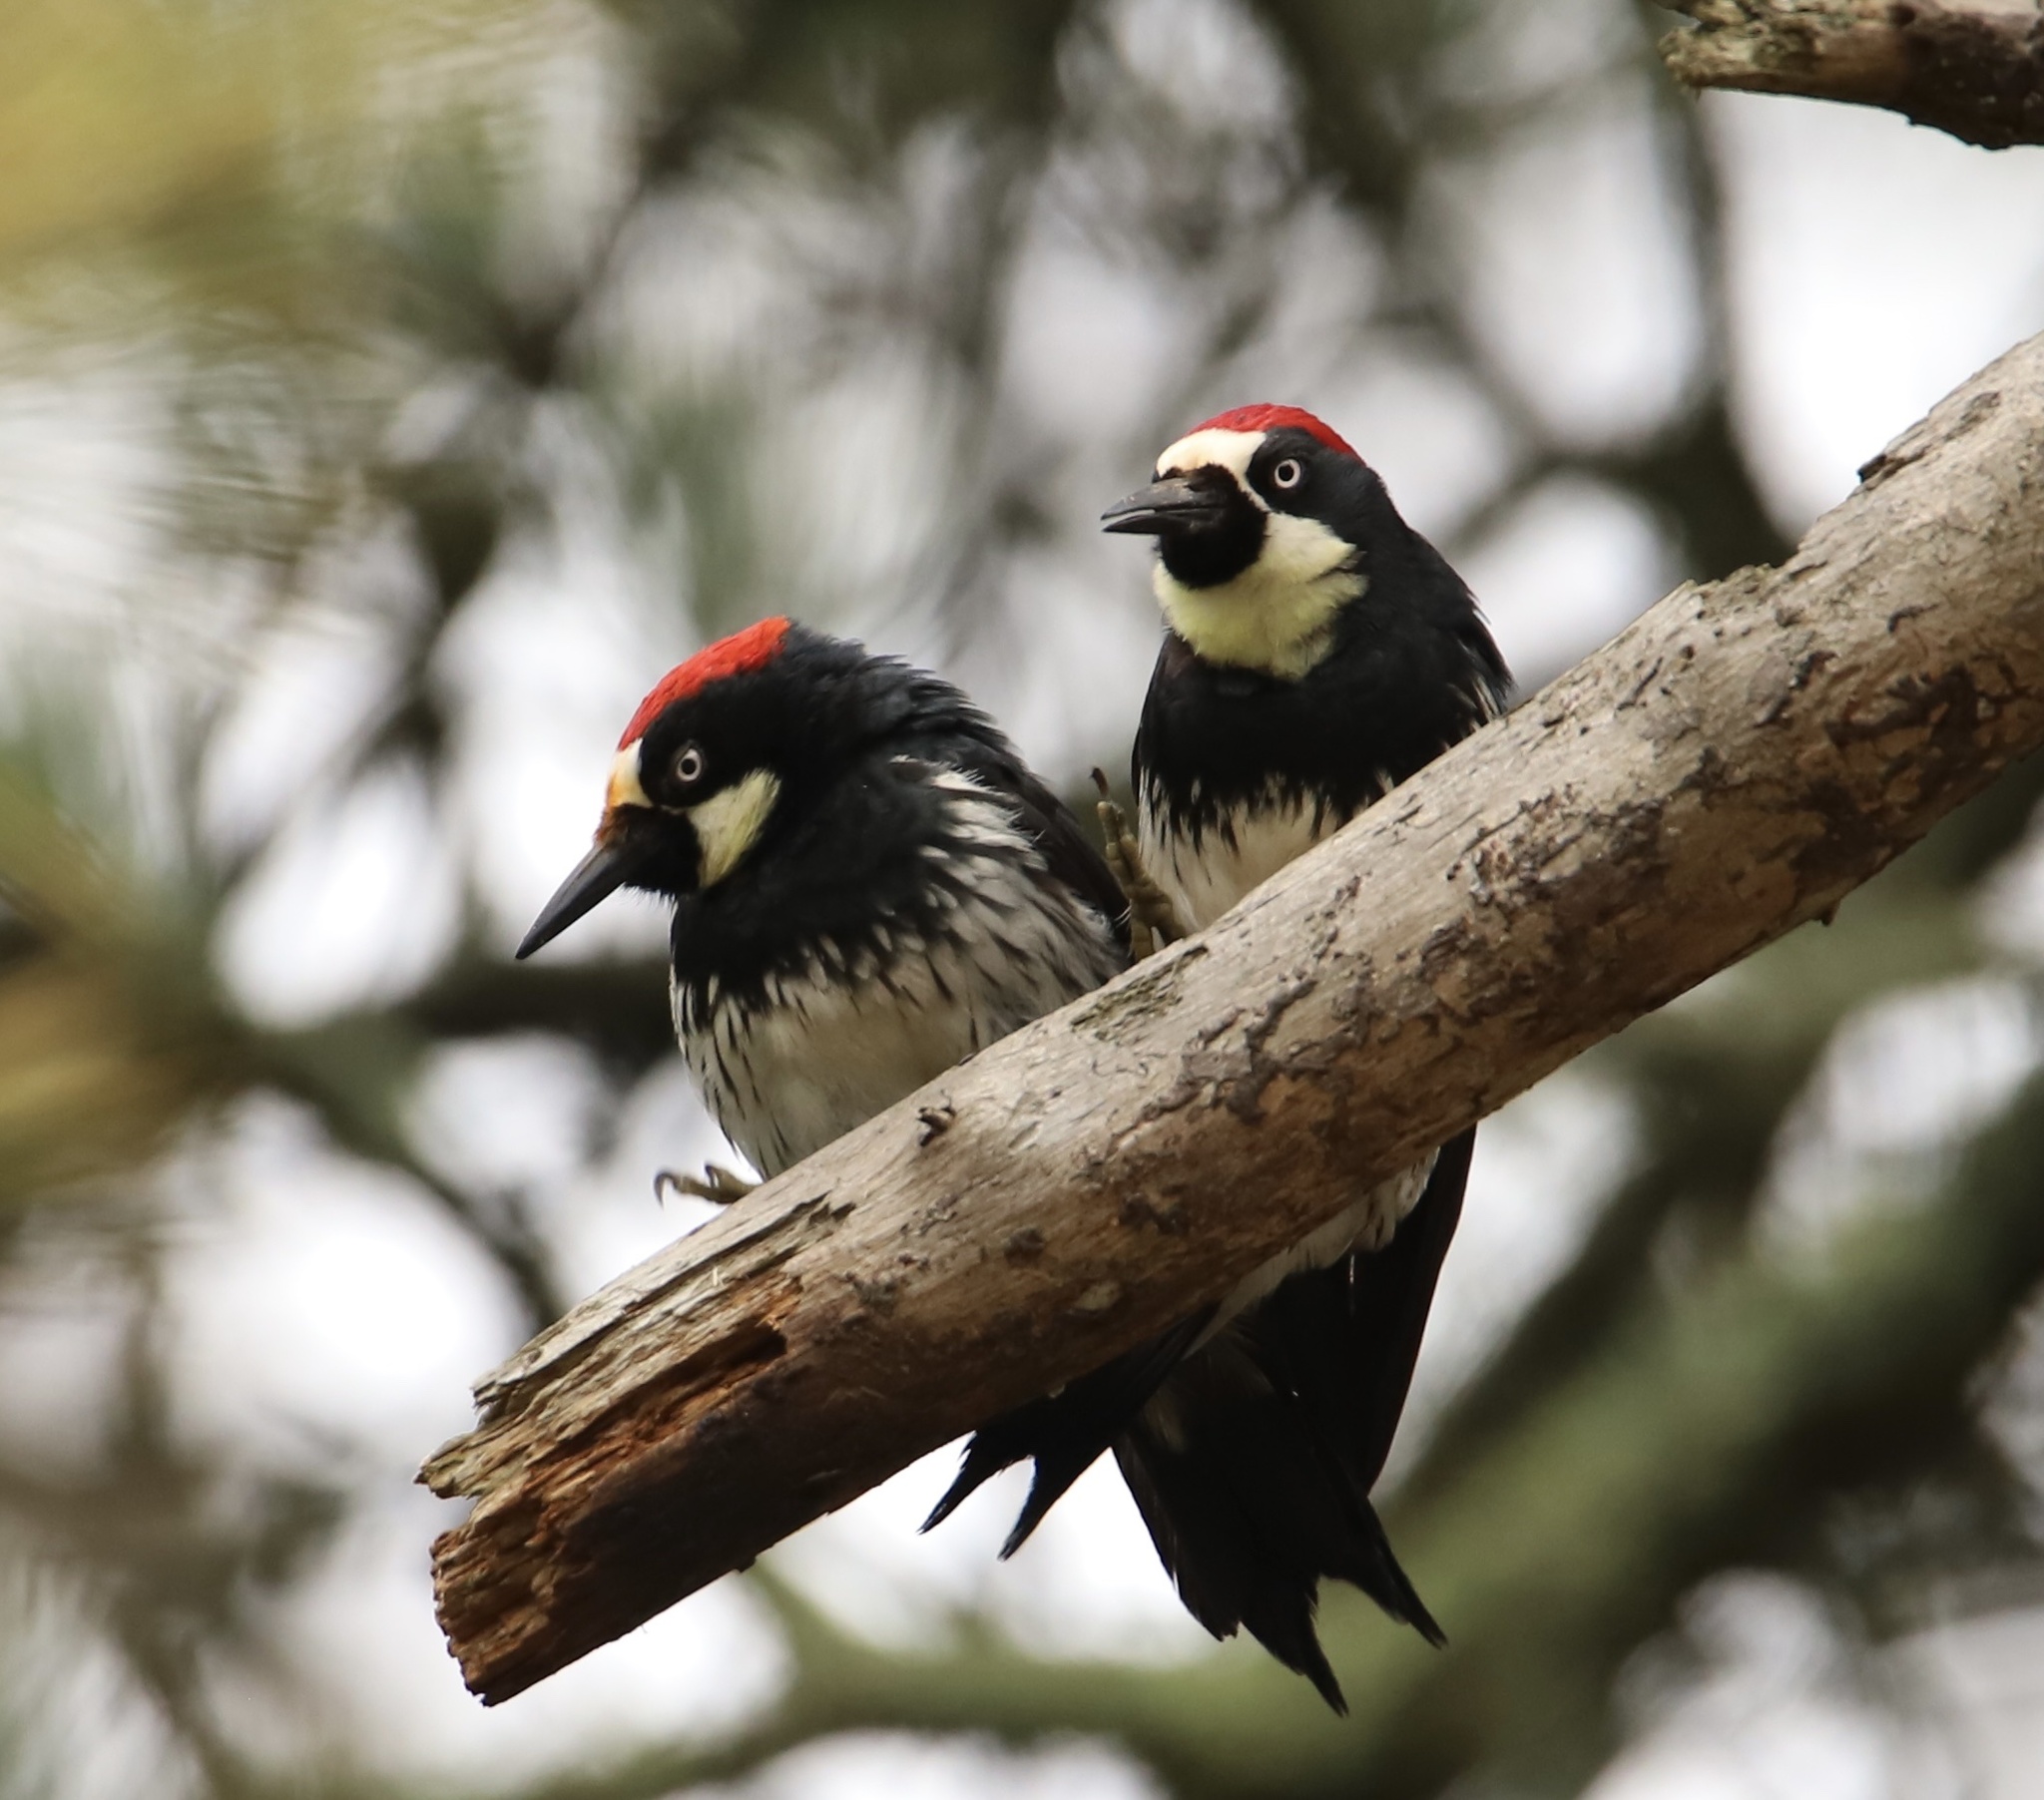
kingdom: Animalia
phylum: Chordata
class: Aves
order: Piciformes
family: Picidae
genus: Melanerpes
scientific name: Melanerpes formicivorus
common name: Acorn woodpecker
